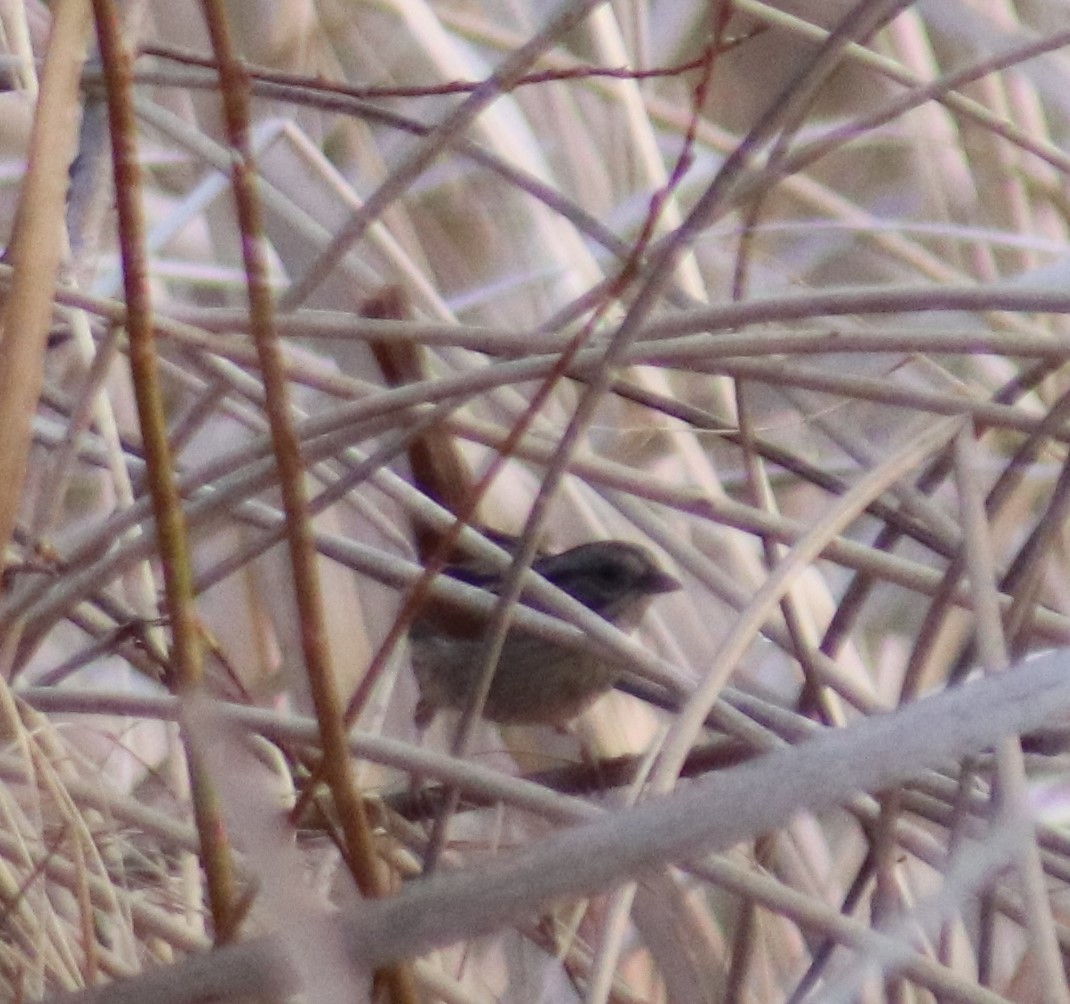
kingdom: Animalia
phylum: Chordata
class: Aves
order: Passeriformes
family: Passerellidae
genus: Melospiza
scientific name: Melospiza georgiana
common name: Swamp sparrow
